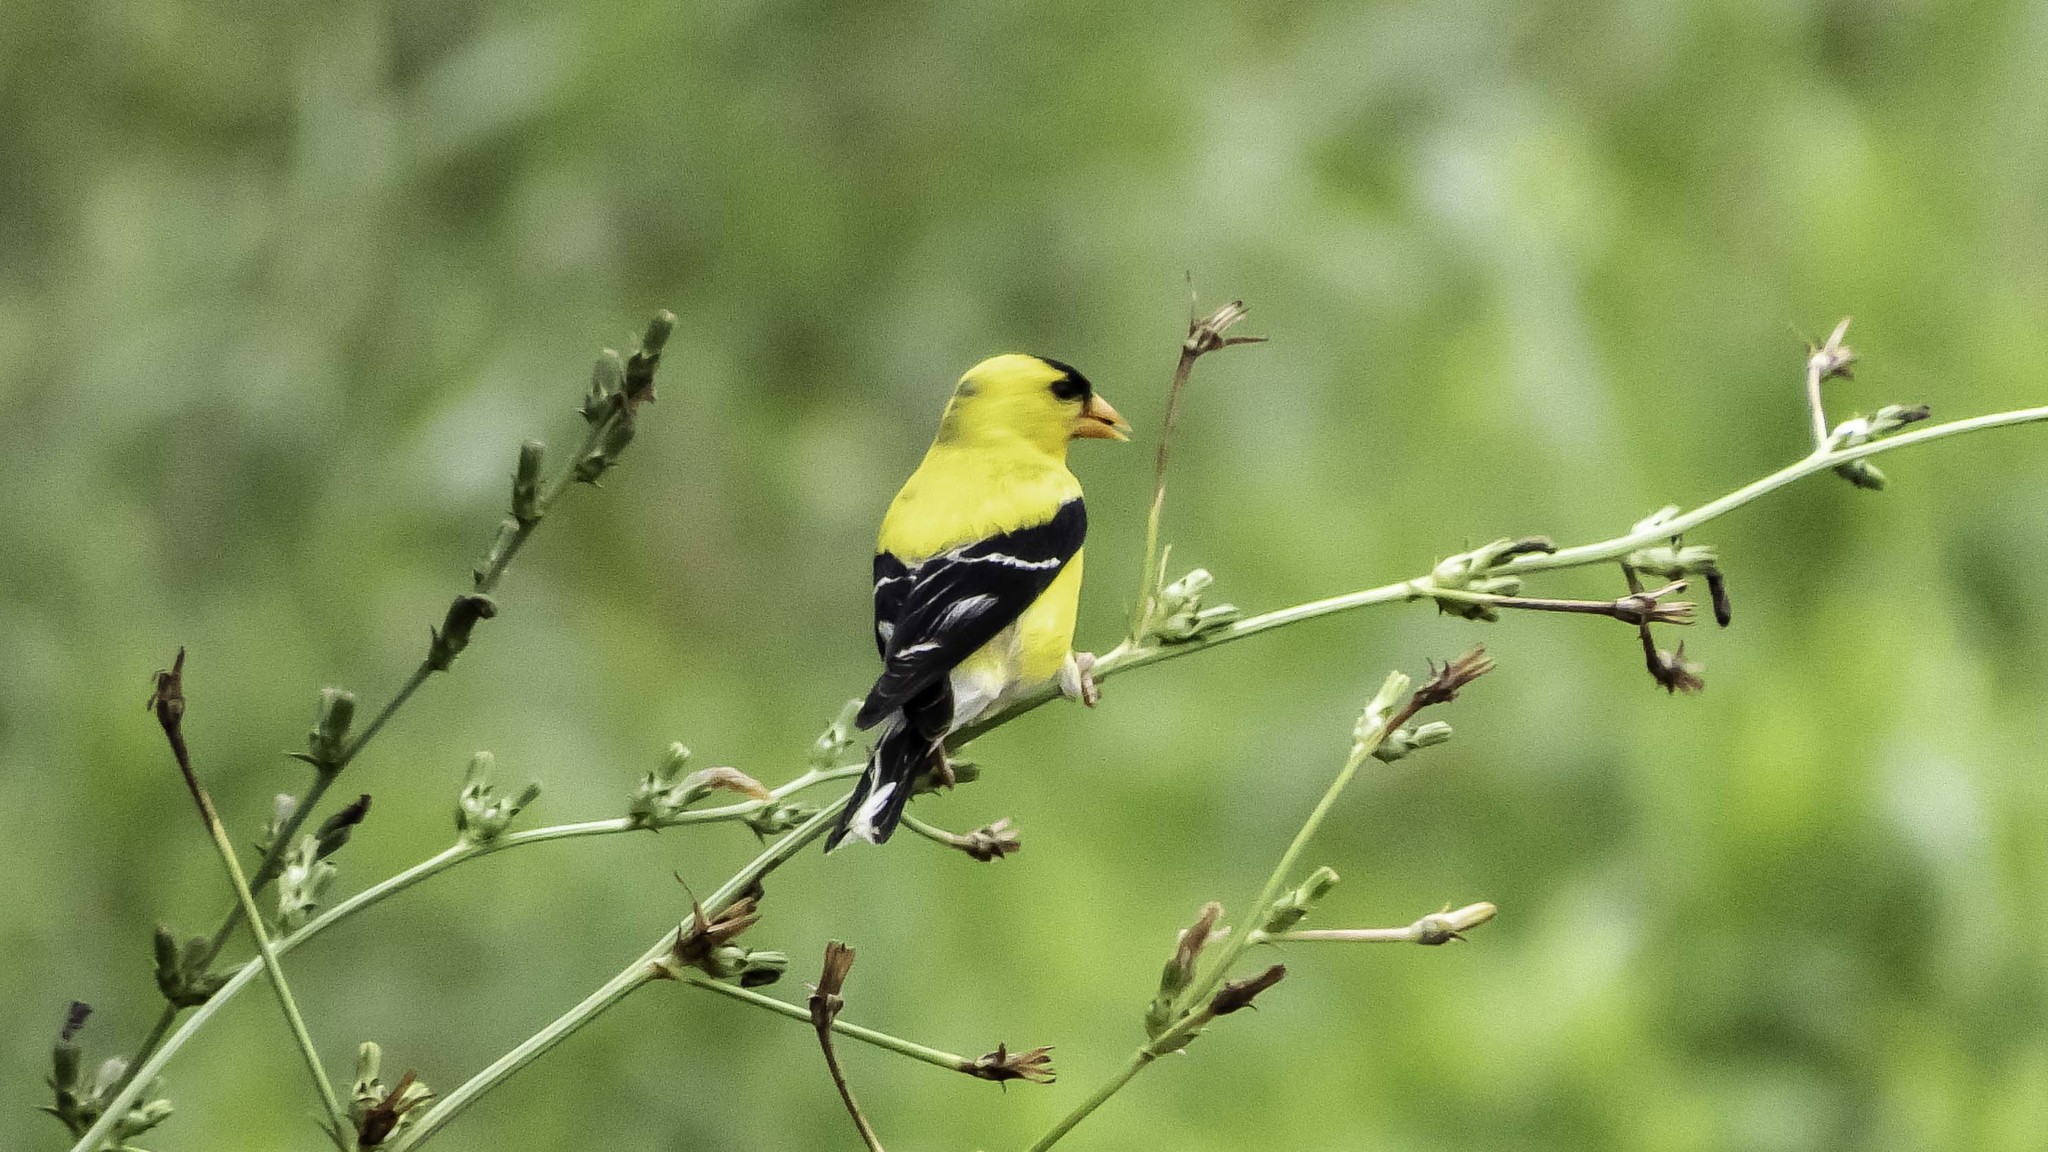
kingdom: Animalia
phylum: Chordata
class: Aves
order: Passeriformes
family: Fringillidae
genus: Spinus
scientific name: Spinus tristis
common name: American goldfinch
